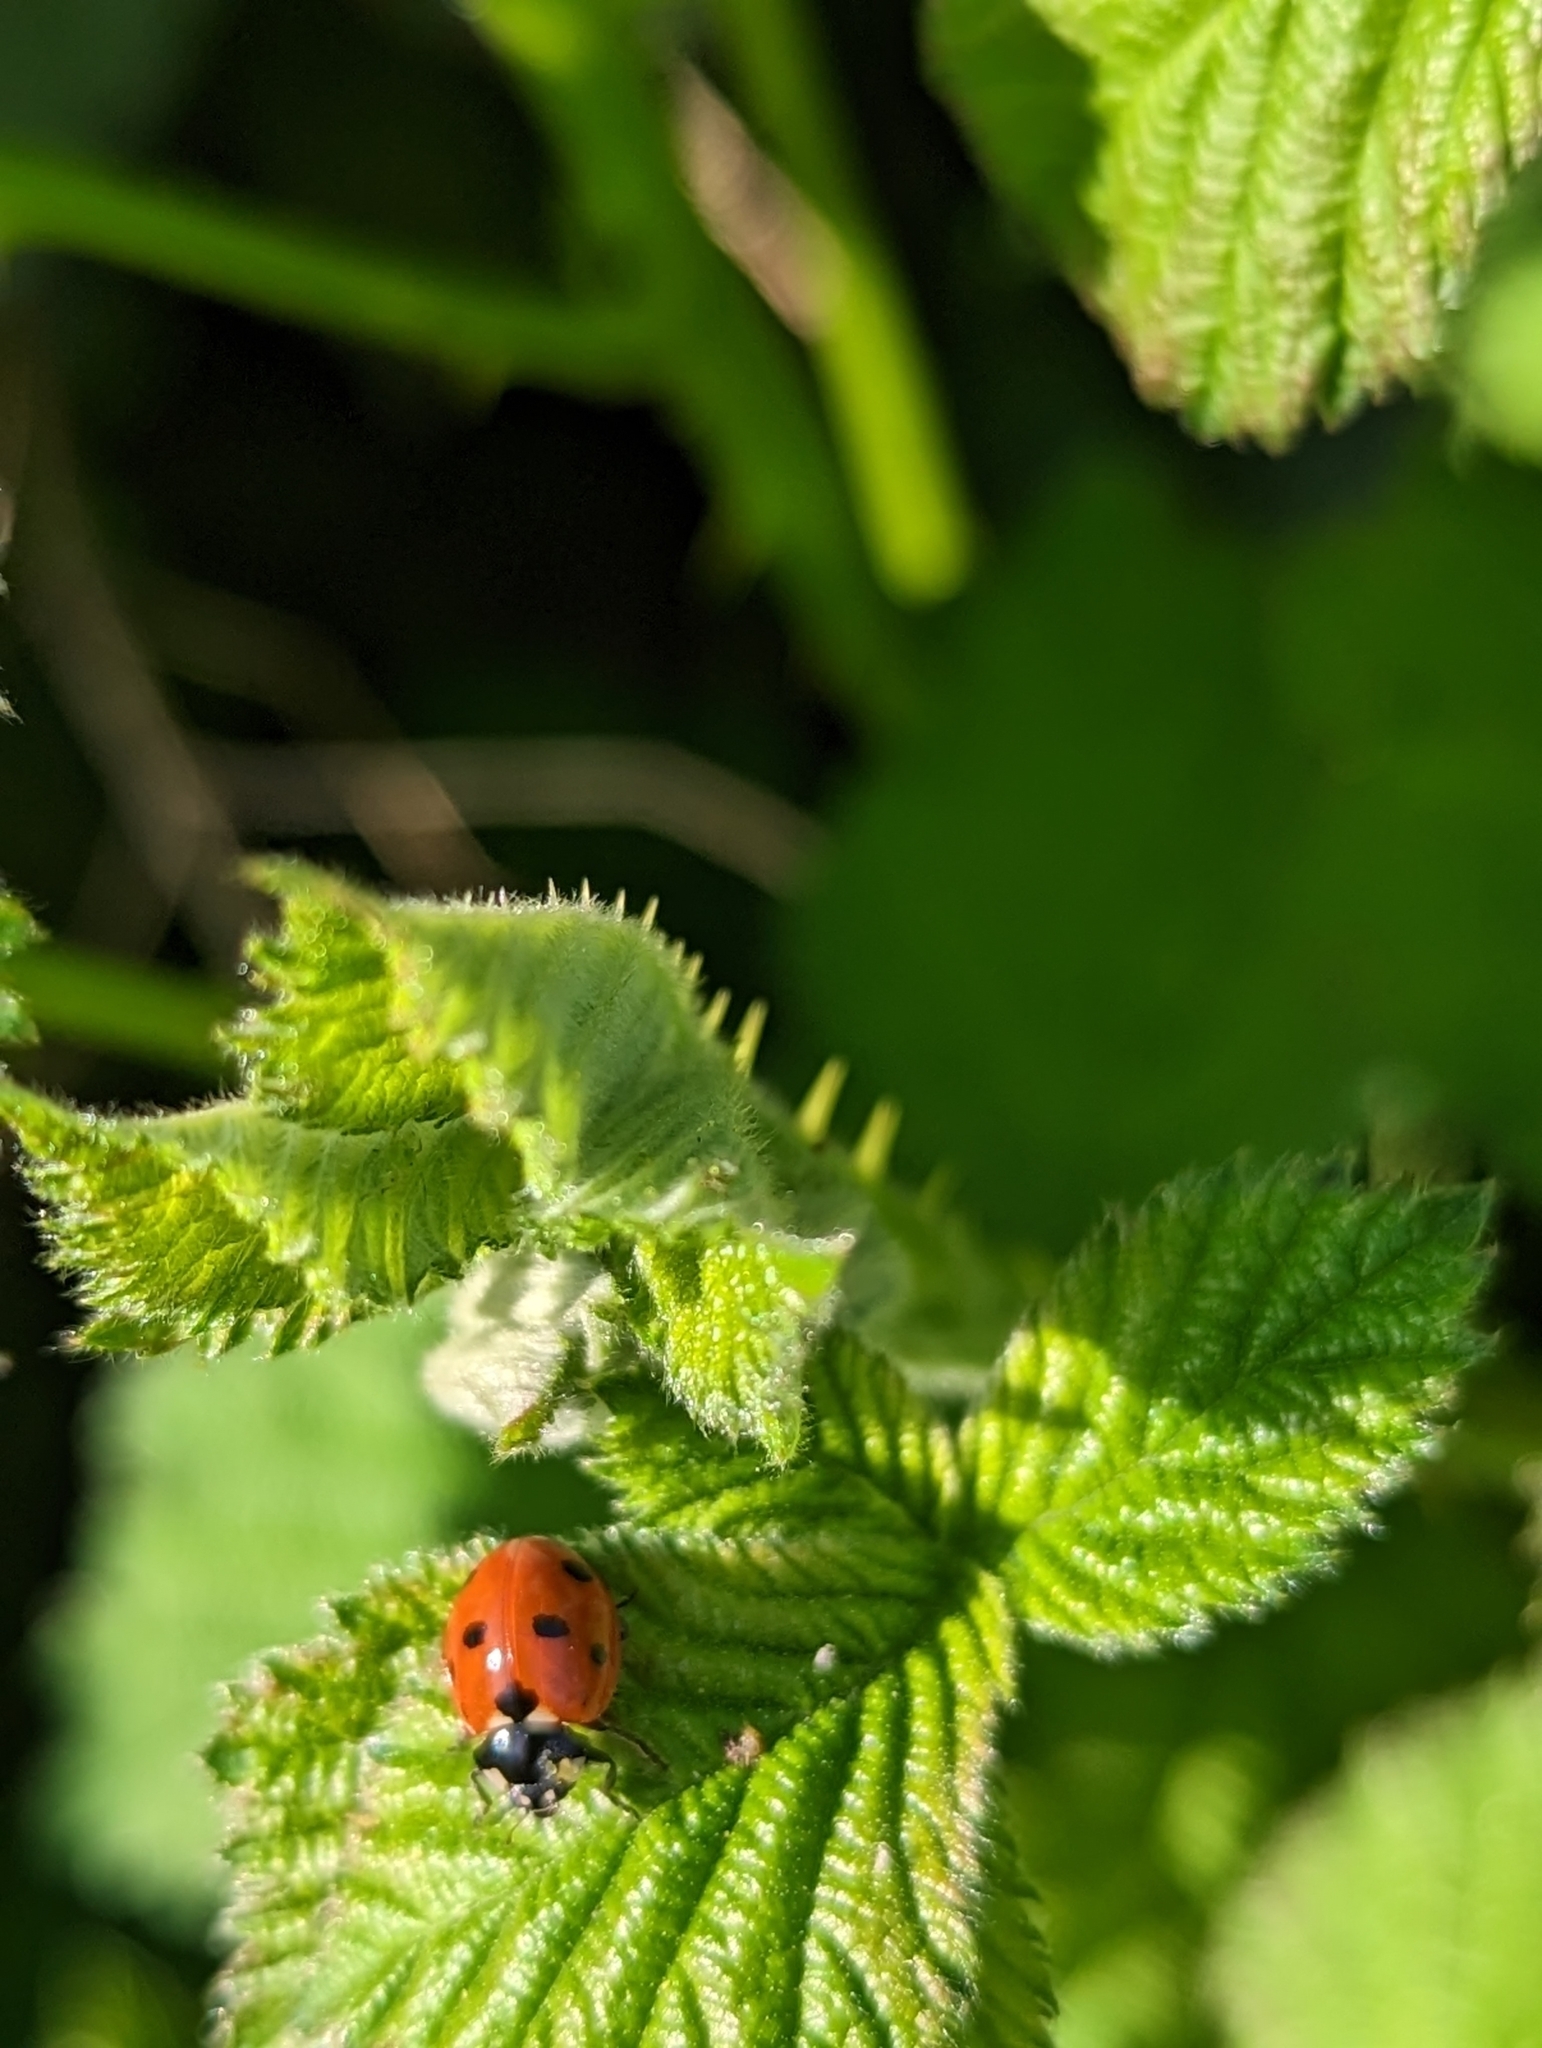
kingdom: Animalia
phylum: Arthropoda
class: Insecta
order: Coleoptera
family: Coccinellidae
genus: Coccinella
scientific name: Coccinella septempunctata
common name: Sevenspotted lady beetle
